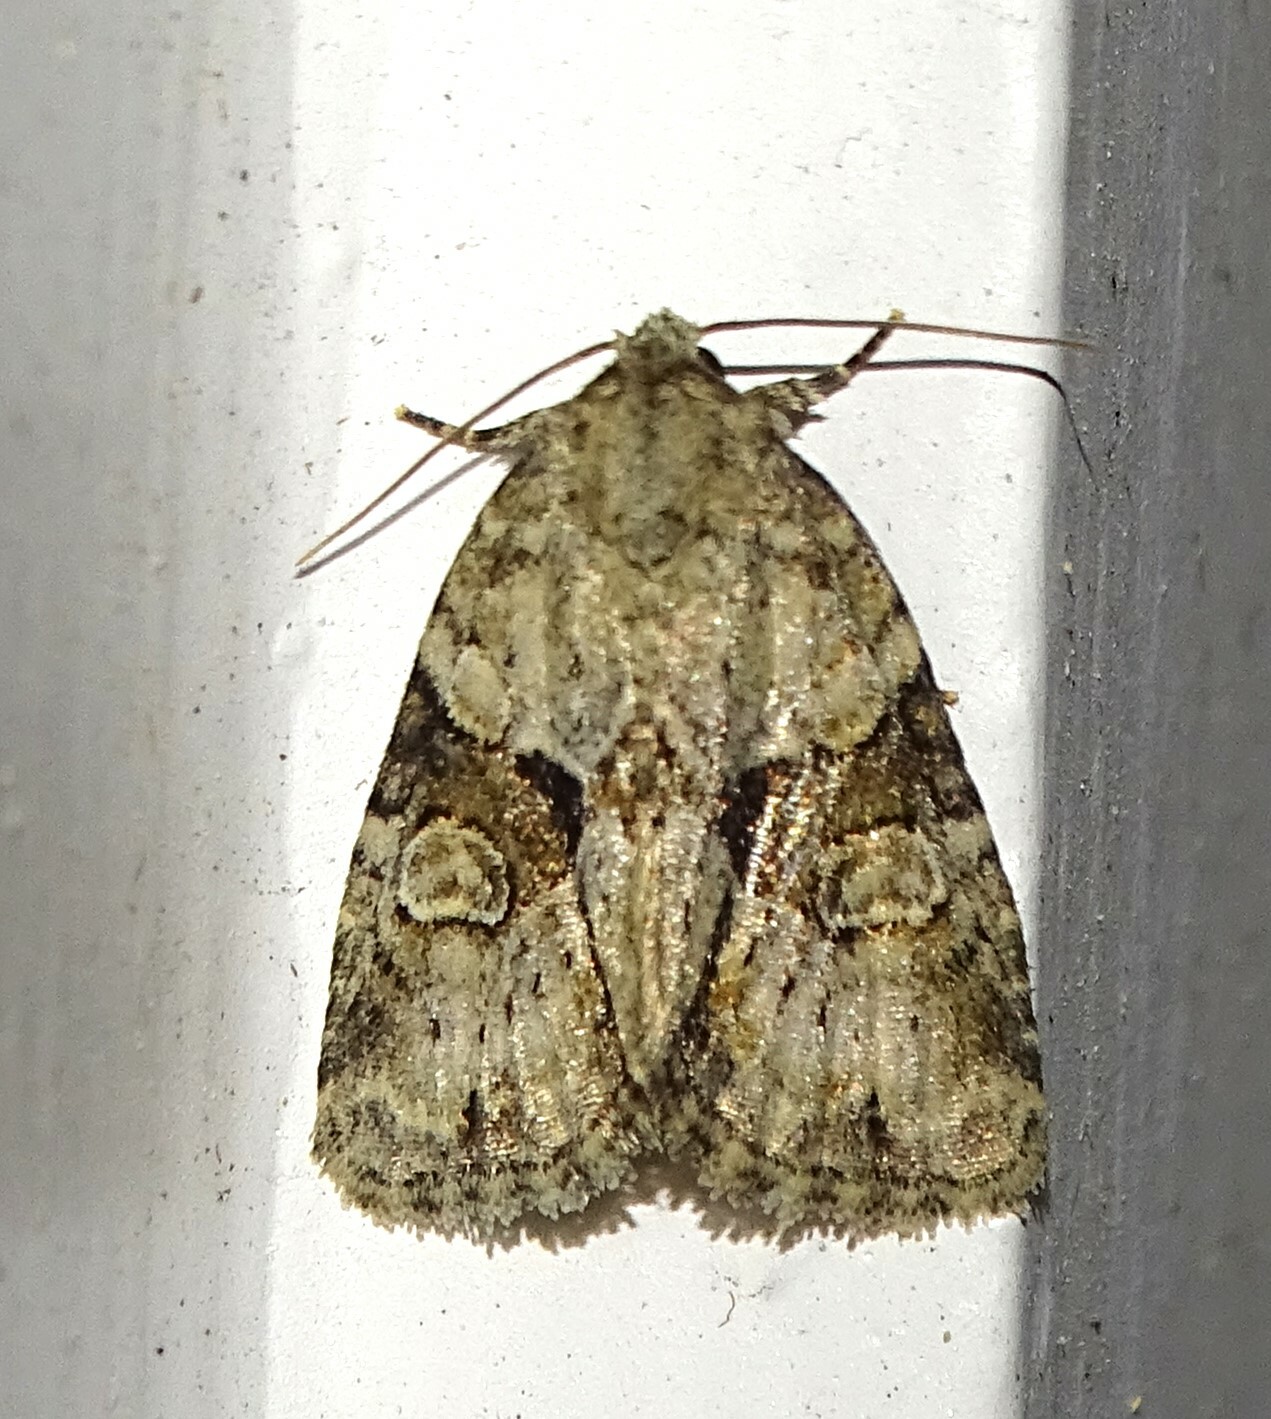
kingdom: Animalia
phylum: Arthropoda
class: Insecta
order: Lepidoptera
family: Noctuidae
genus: Neoligia
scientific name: Neoligia exhausta
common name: Exhausted brocade
